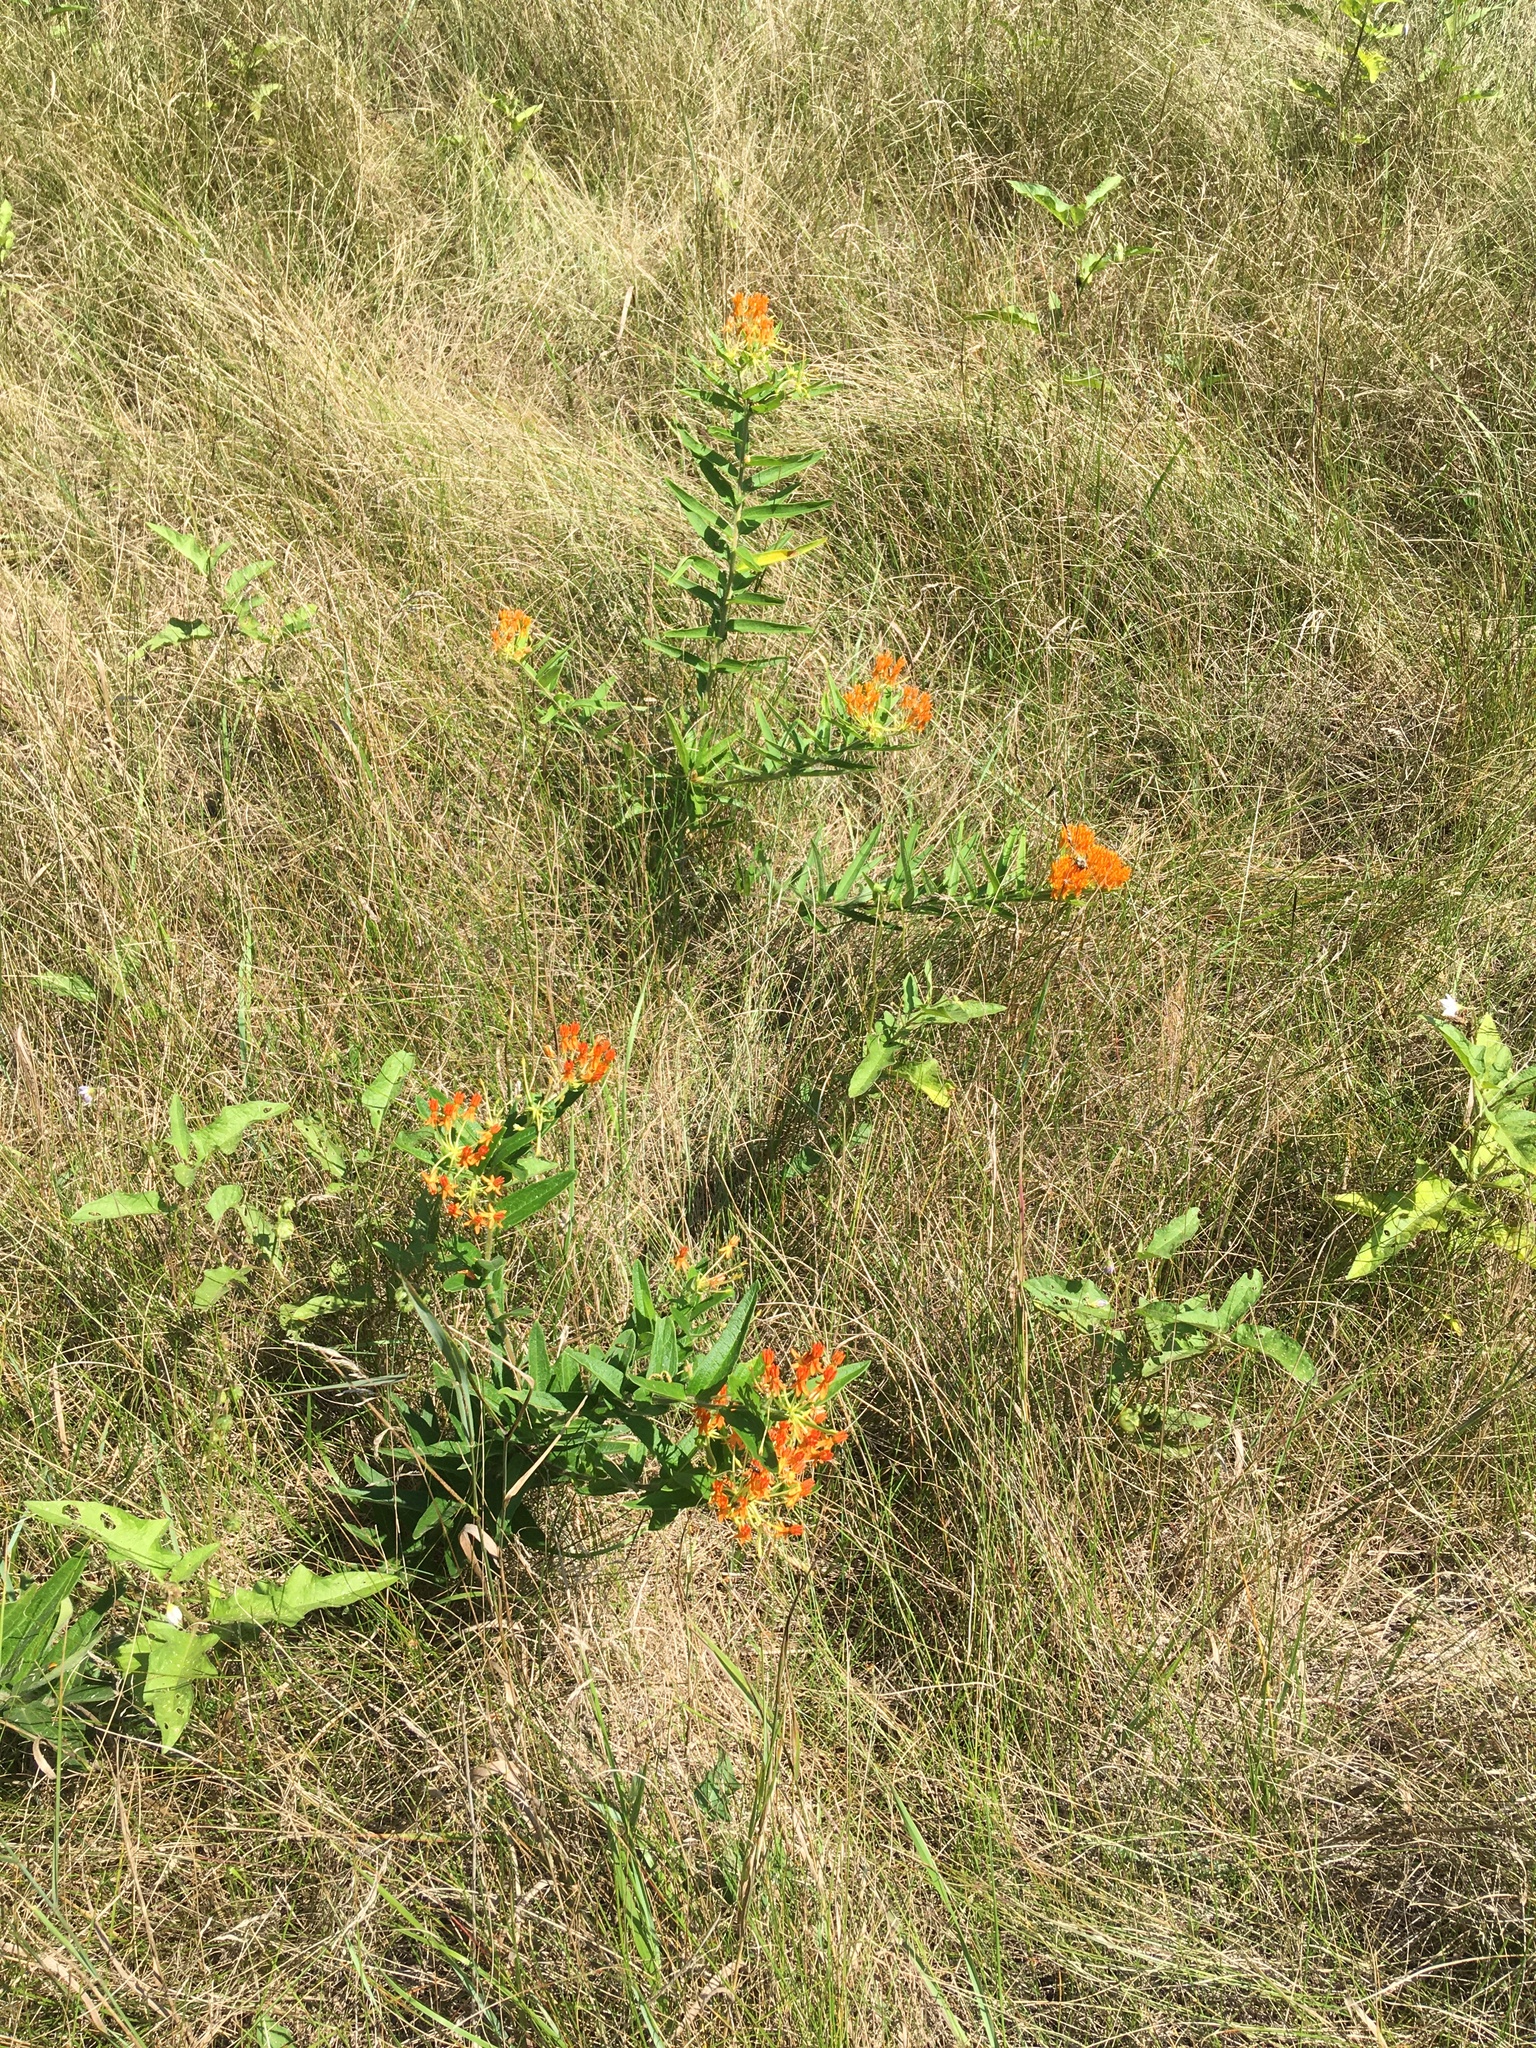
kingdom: Plantae
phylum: Tracheophyta
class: Magnoliopsida
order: Gentianales
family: Apocynaceae
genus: Asclepias
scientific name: Asclepias tuberosa
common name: Butterfly milkweed
